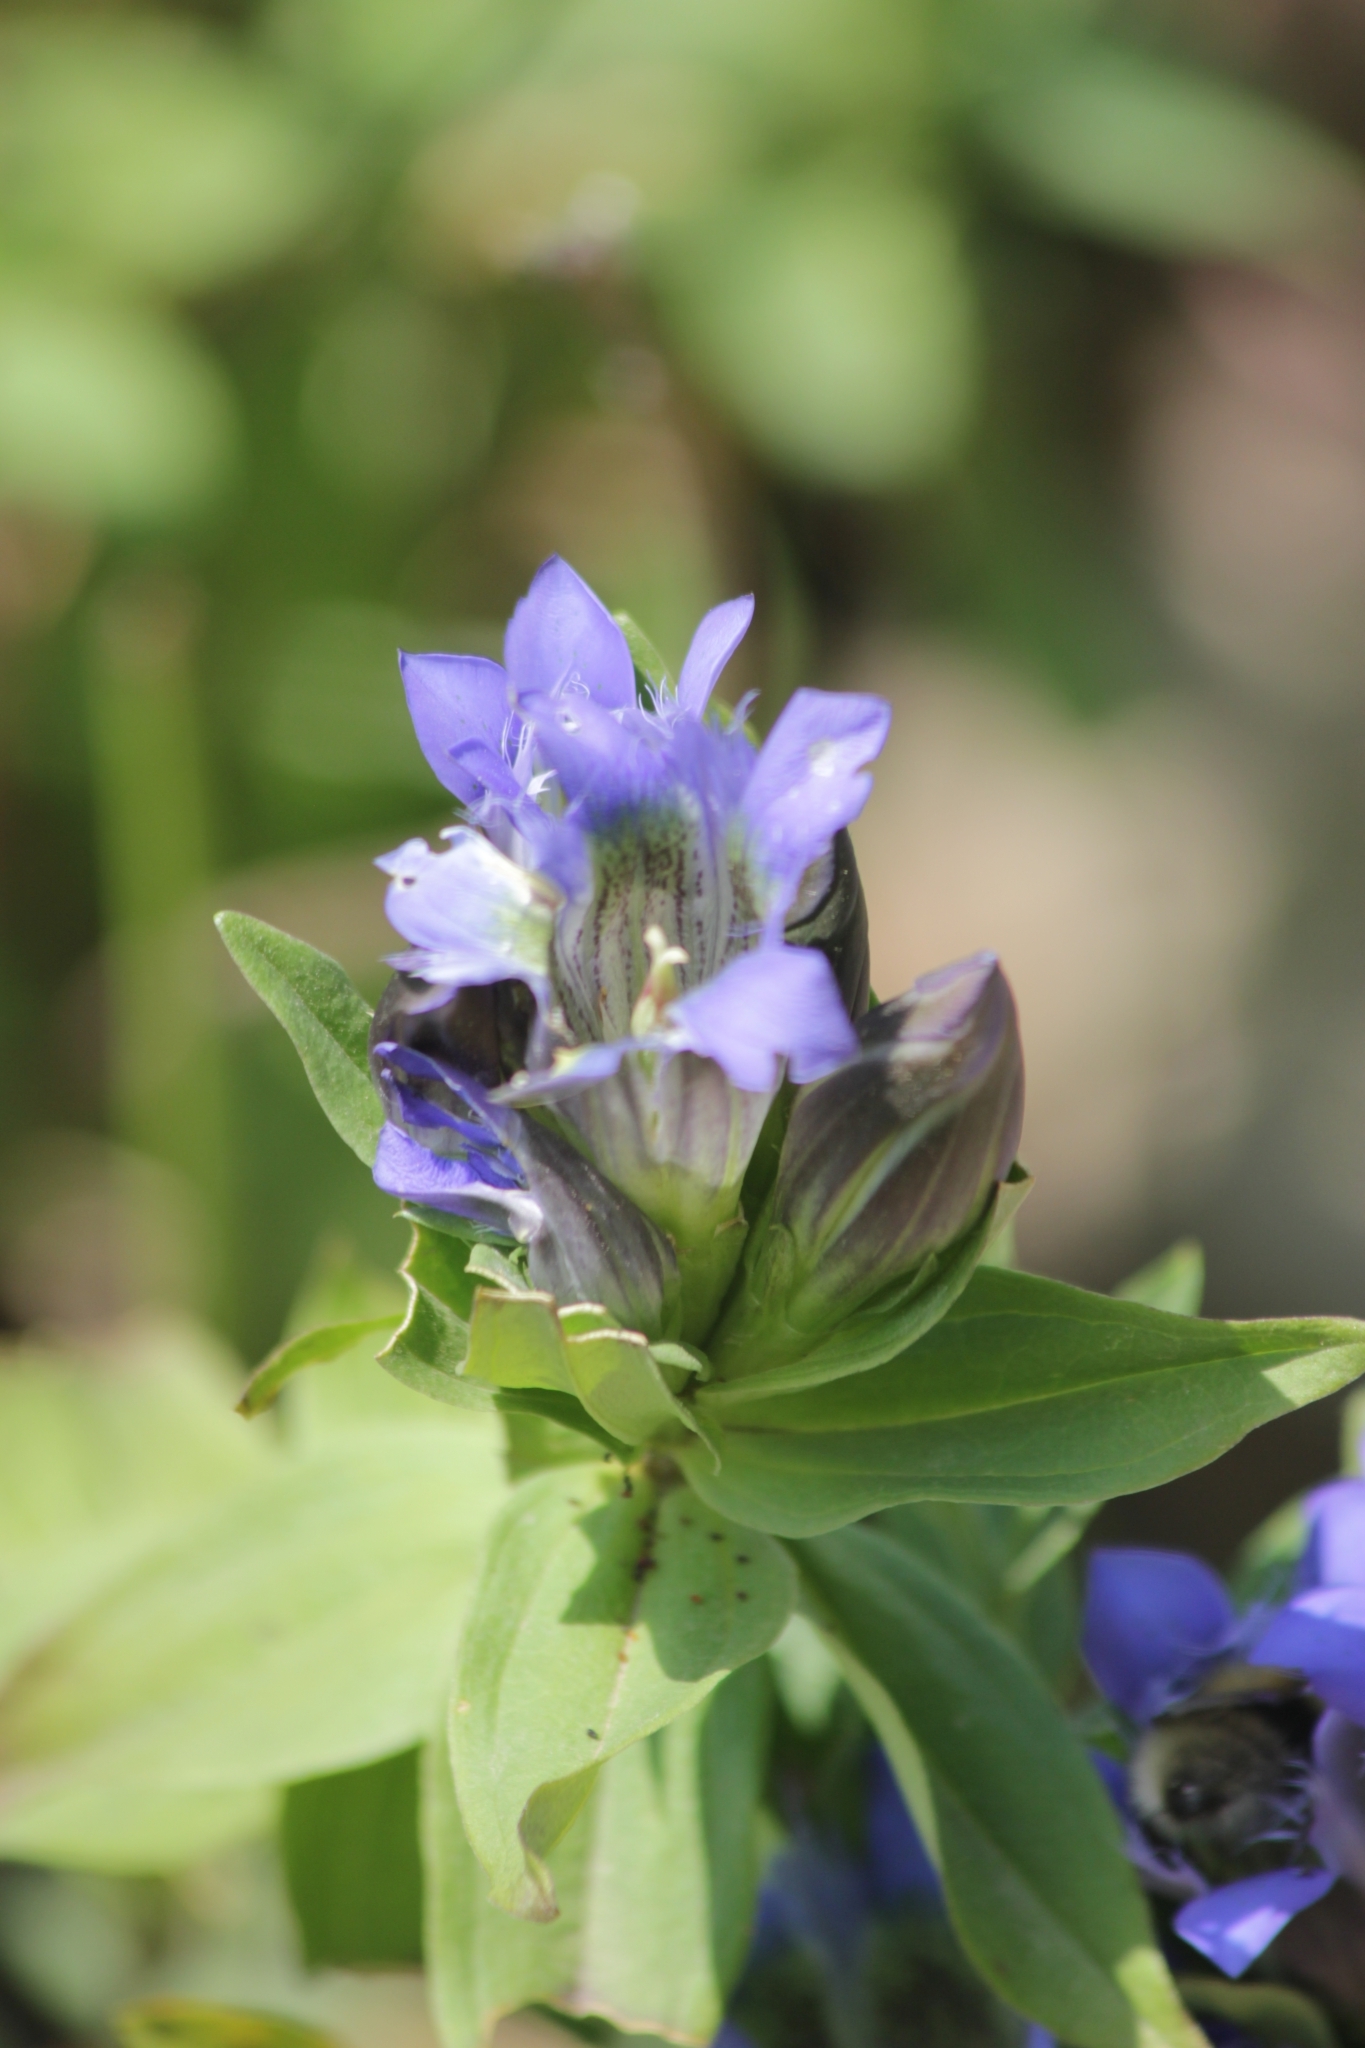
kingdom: Plantae
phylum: Tracheophyta
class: Magnoliopsida
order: Gentianales
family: Gentianaceae
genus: Gentiana
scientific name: Gentiana septemfida
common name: Crested gentian
